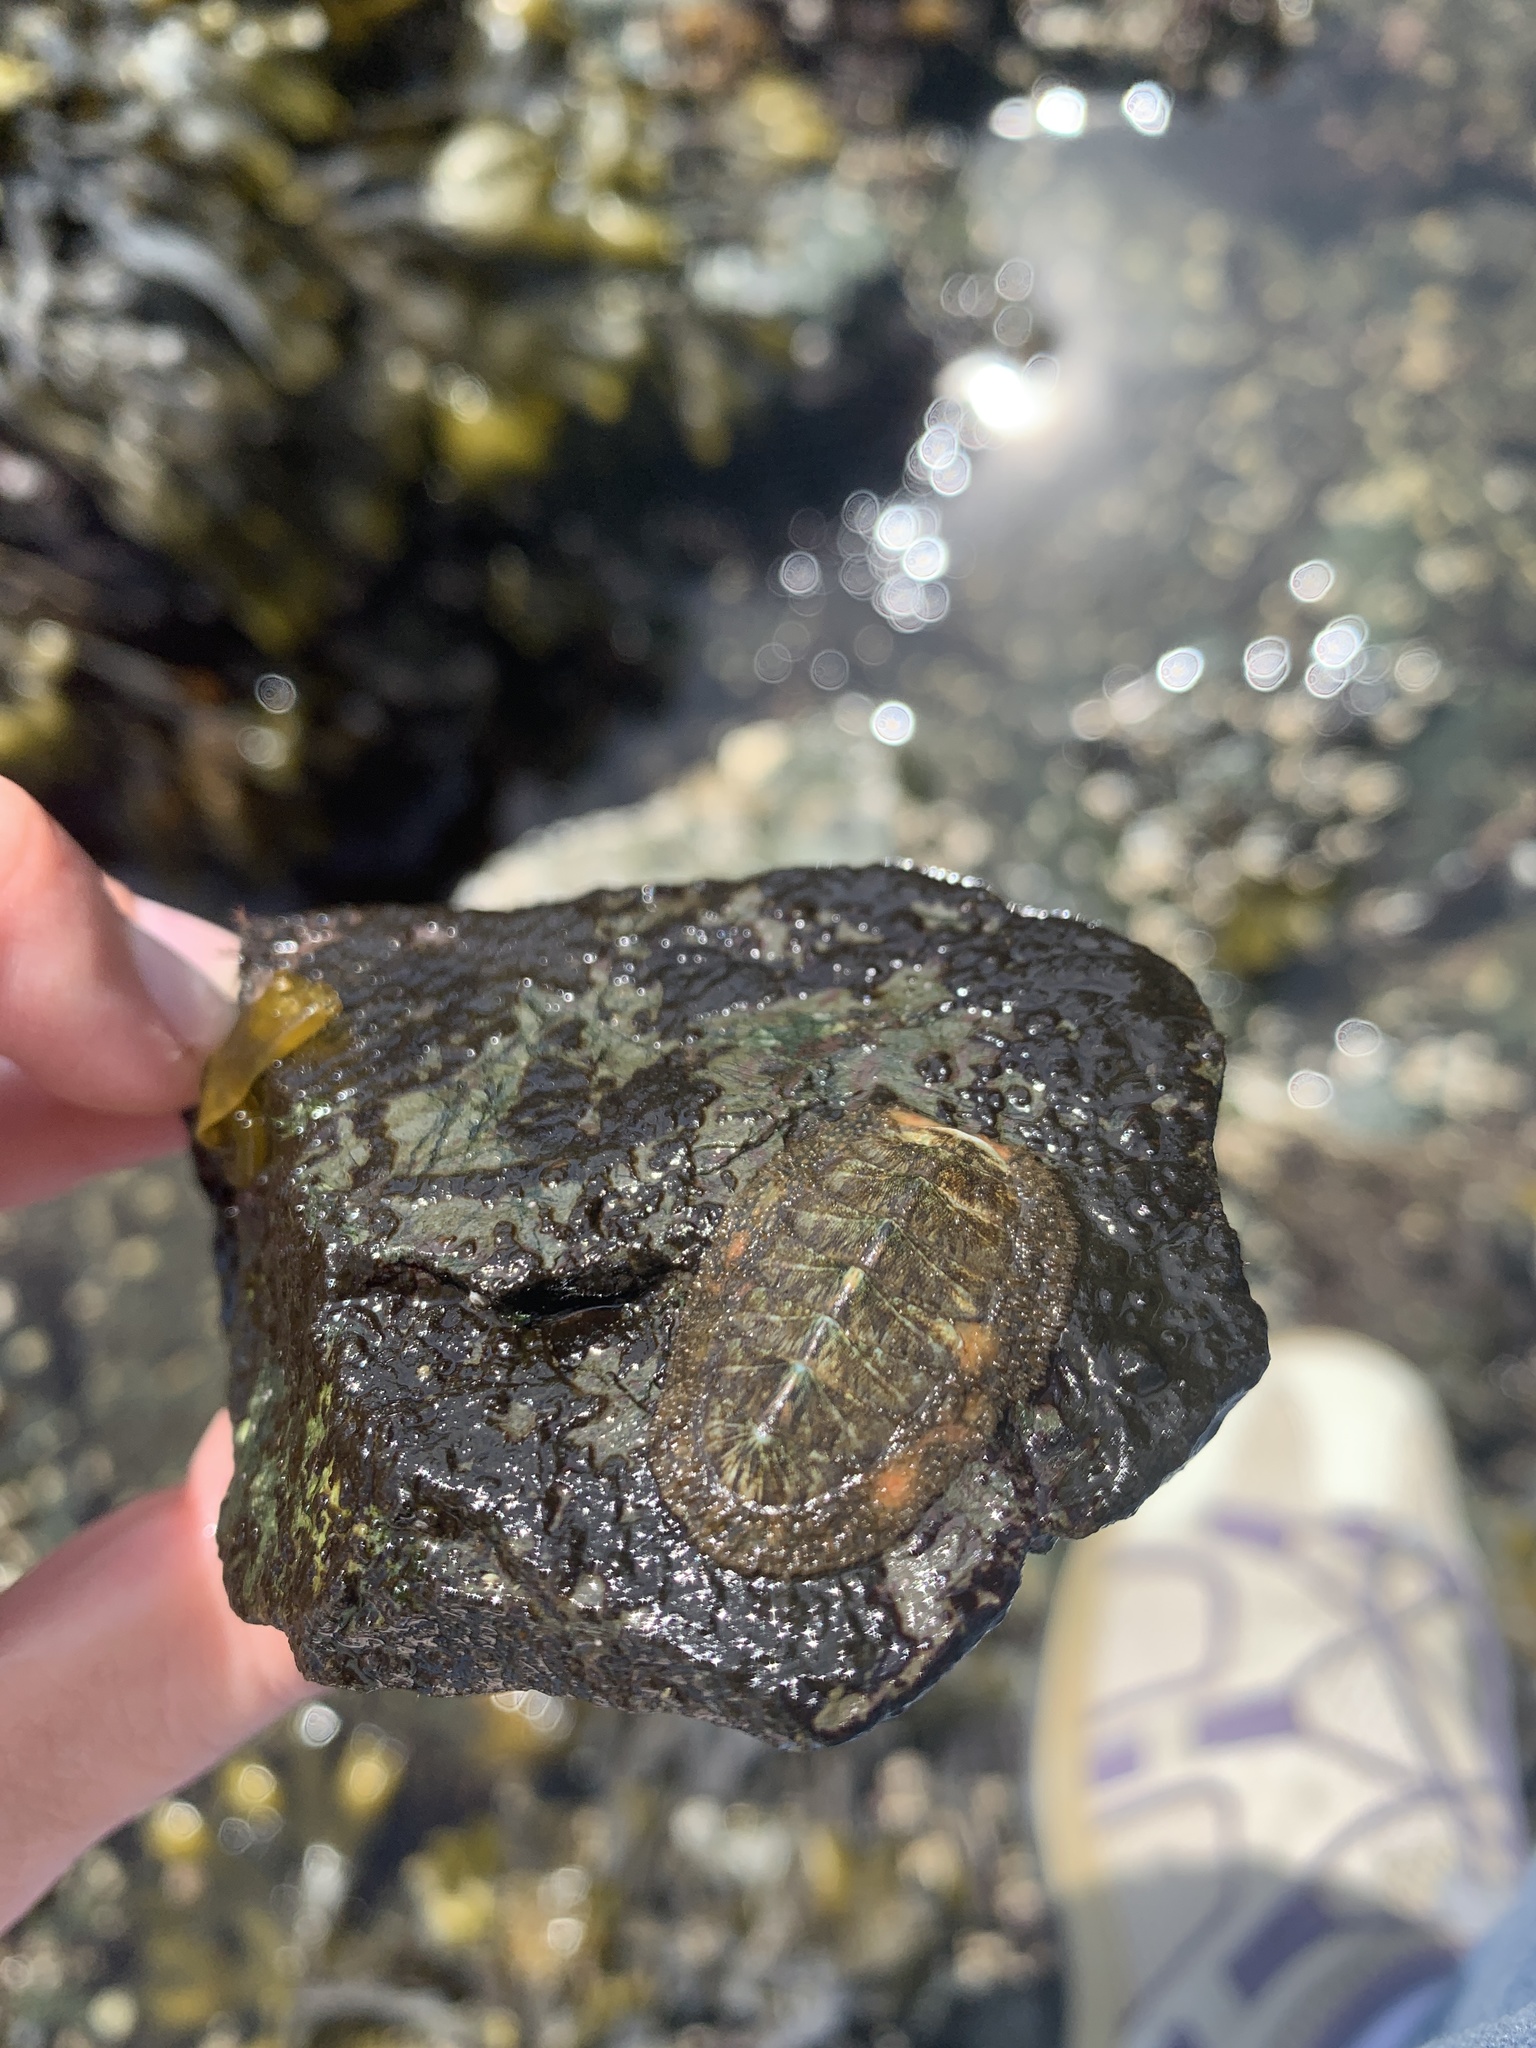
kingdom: Animalia
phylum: Mollusca
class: Polyplacophora
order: Chitonida
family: Mopaliidae
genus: Mopalia
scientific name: Mopalia lignosa
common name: Woody chiton
